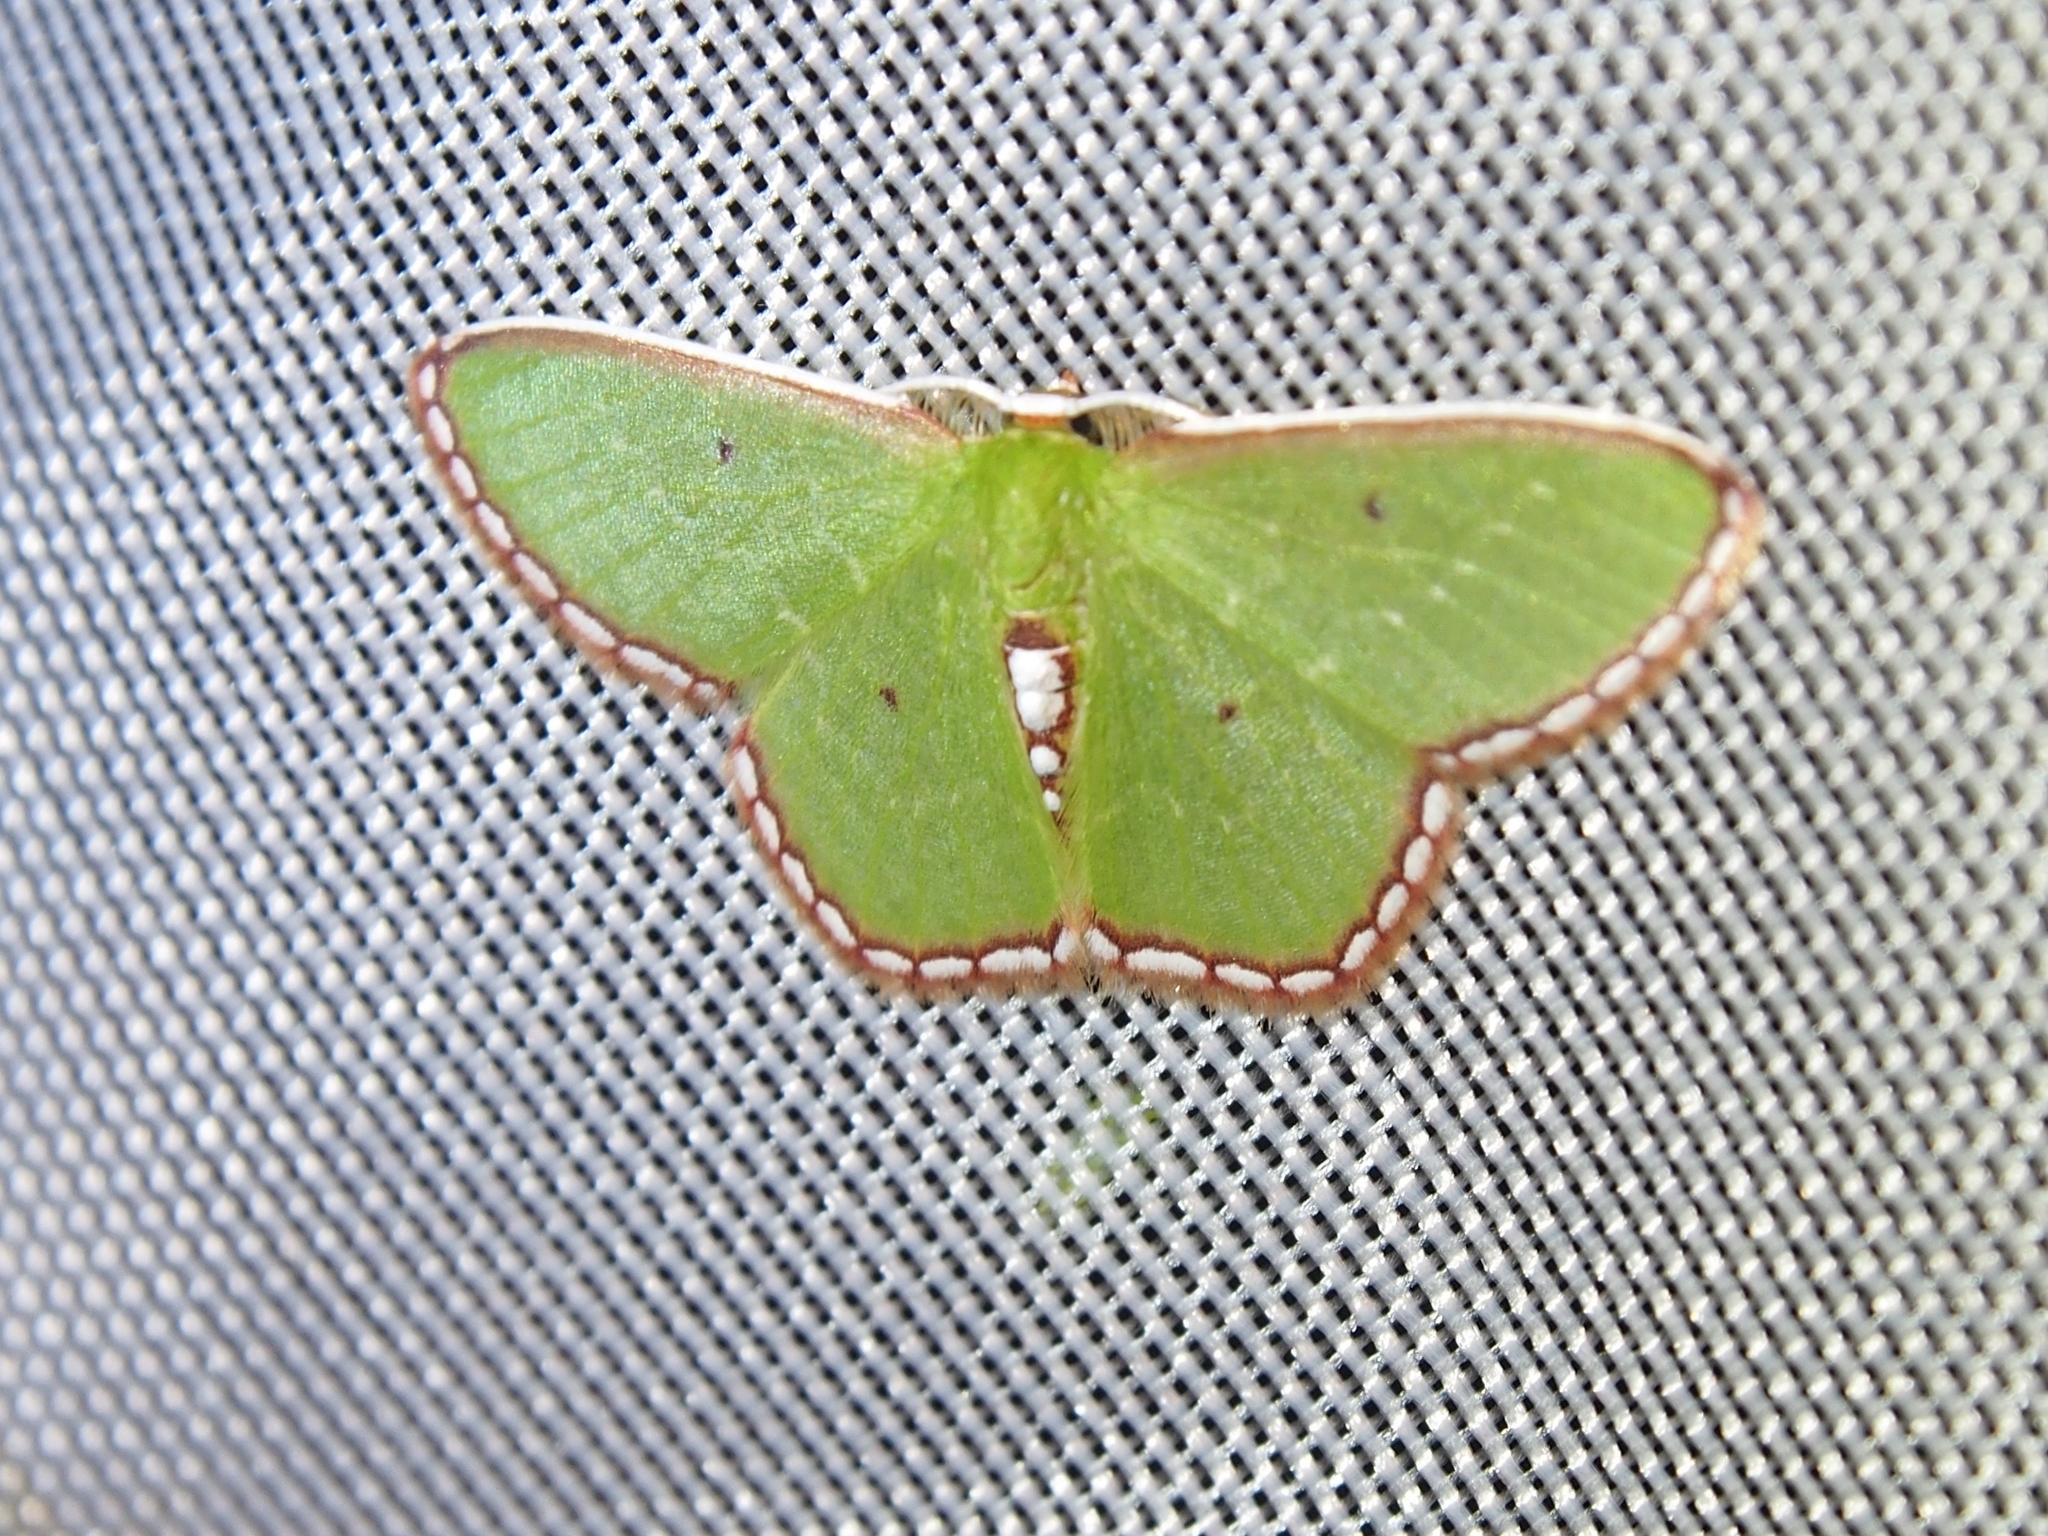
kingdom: Animalia
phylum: Arthropoda
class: Insecta
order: Lepidoptera
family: Geometridae
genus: Synchlora
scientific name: Synchlora tenuimargo
